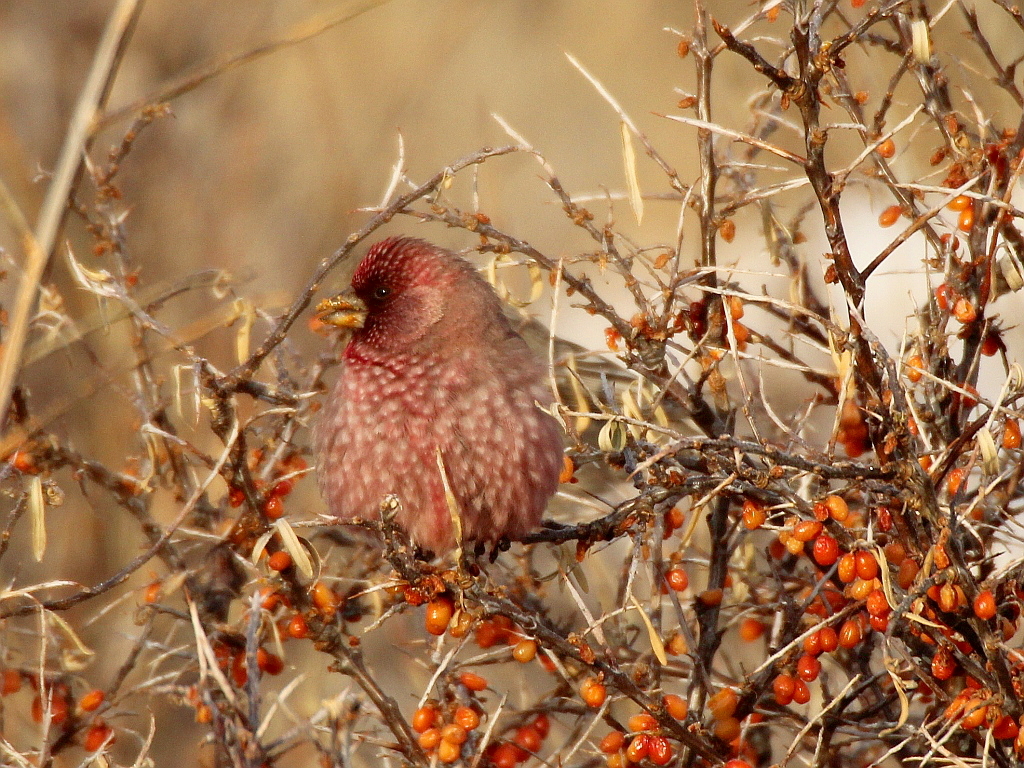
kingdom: Animalia
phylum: Chordata
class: Aves
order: Passeriformes
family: Fringillidae
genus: Carpodacus
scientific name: Carpodacus rubicilla
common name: Great rosefinch
